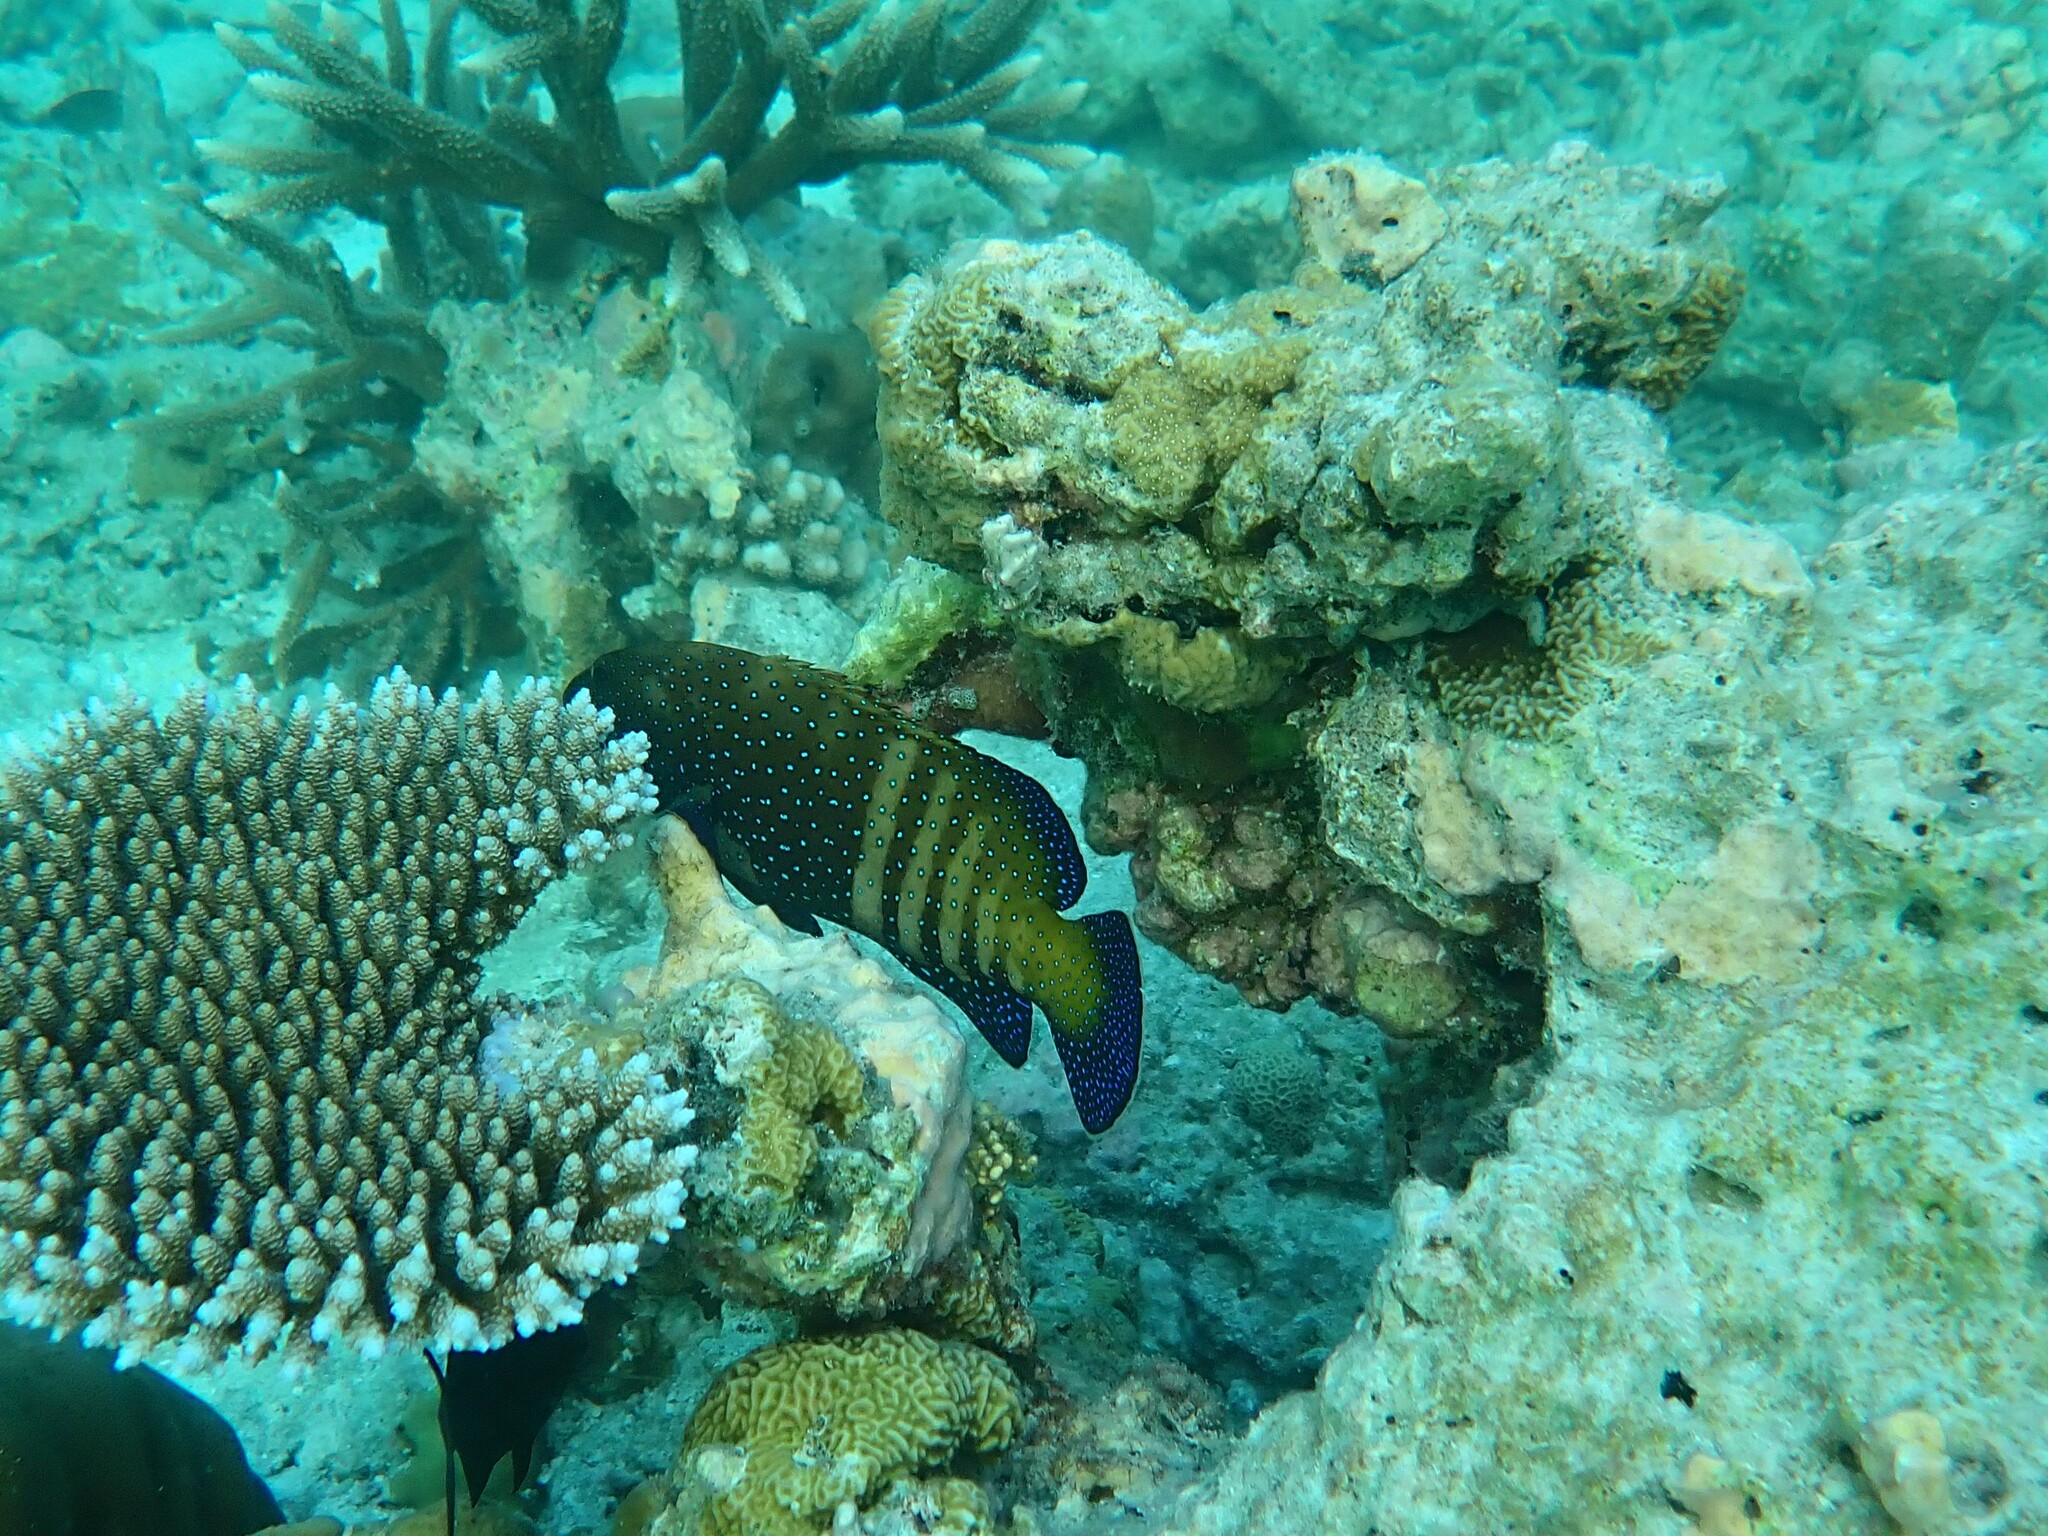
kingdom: Animalia
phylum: Chordata
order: Perciformes
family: Serranidae
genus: Cephalopholis
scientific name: Cephalopholis argus
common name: Peacock grouper
